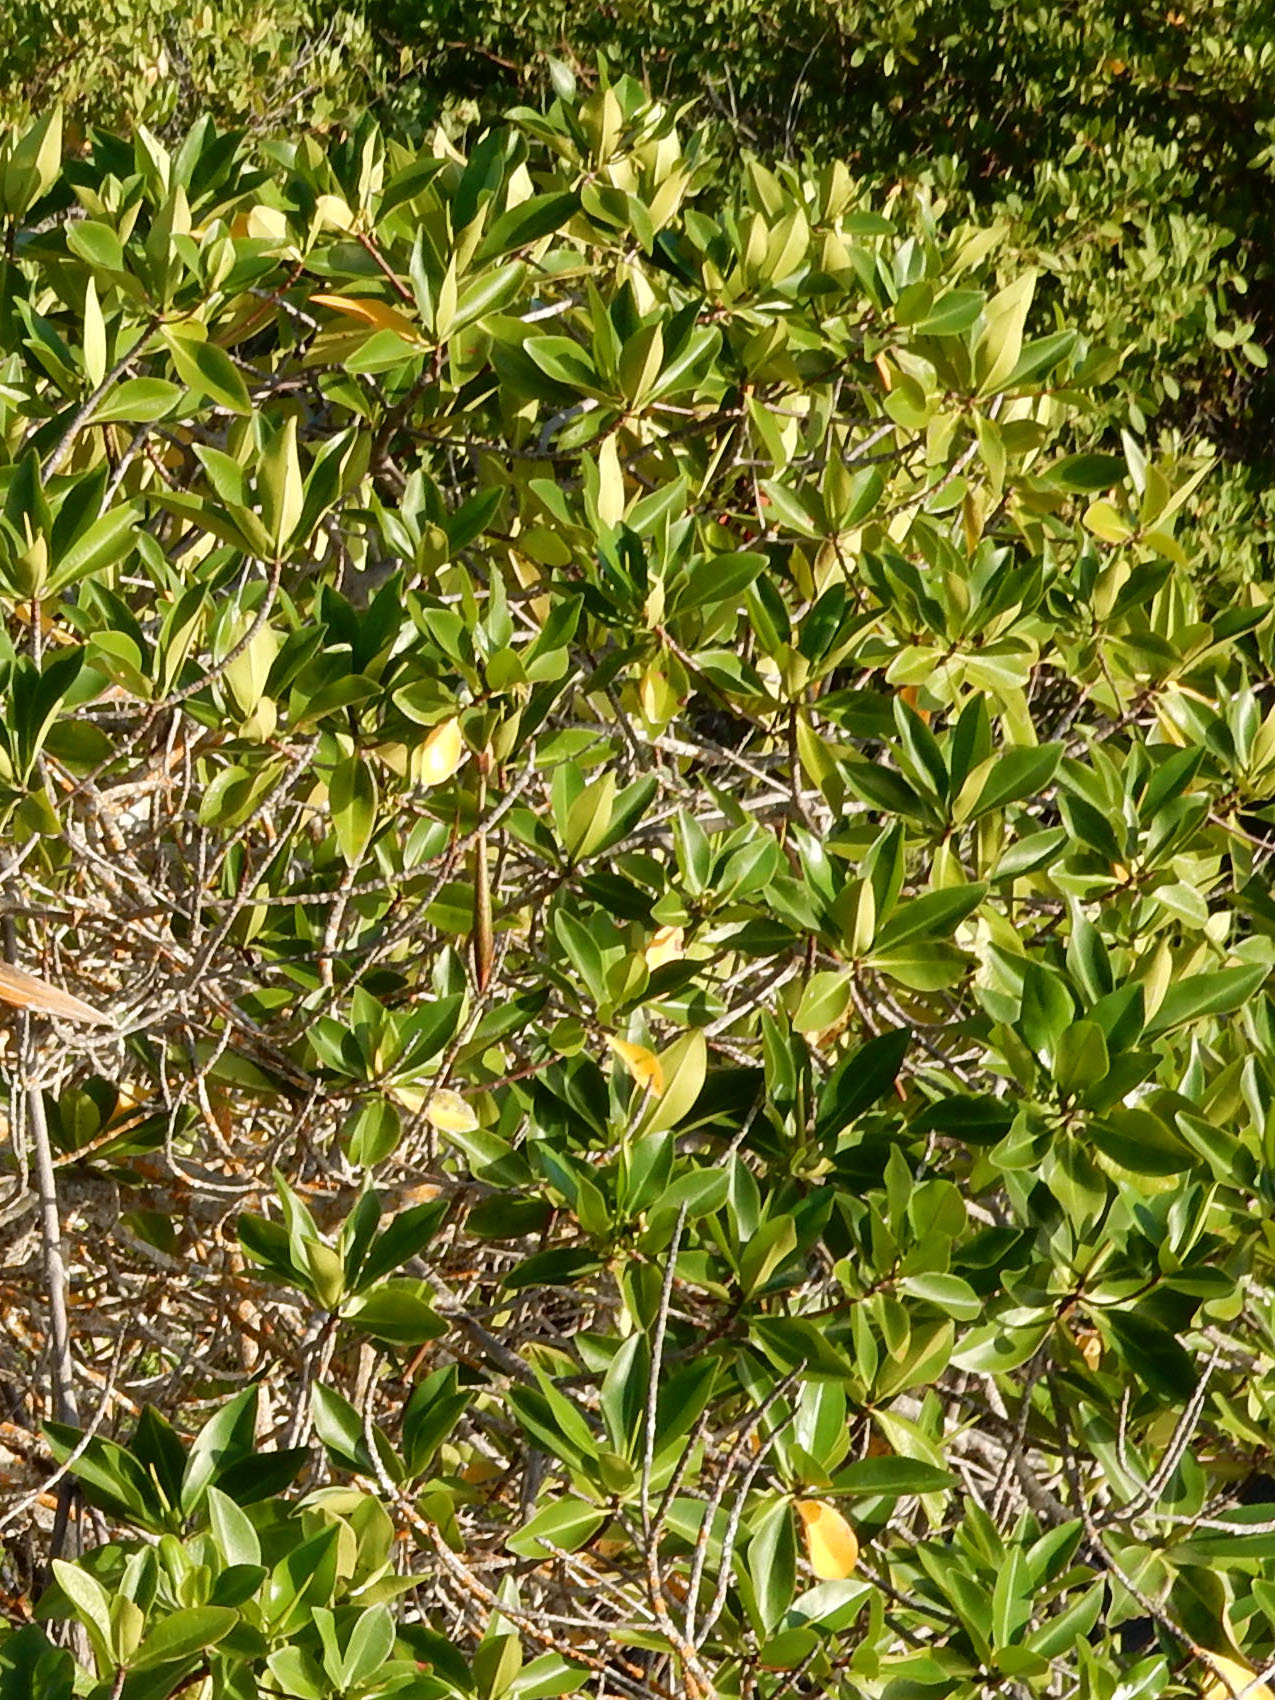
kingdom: Plantae
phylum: Tracheophyta
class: Magnoliopsida
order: Malpighiales
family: Rhizophoraceae
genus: Rhizophora
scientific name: Rhizophora mangle
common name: Red mangrove
